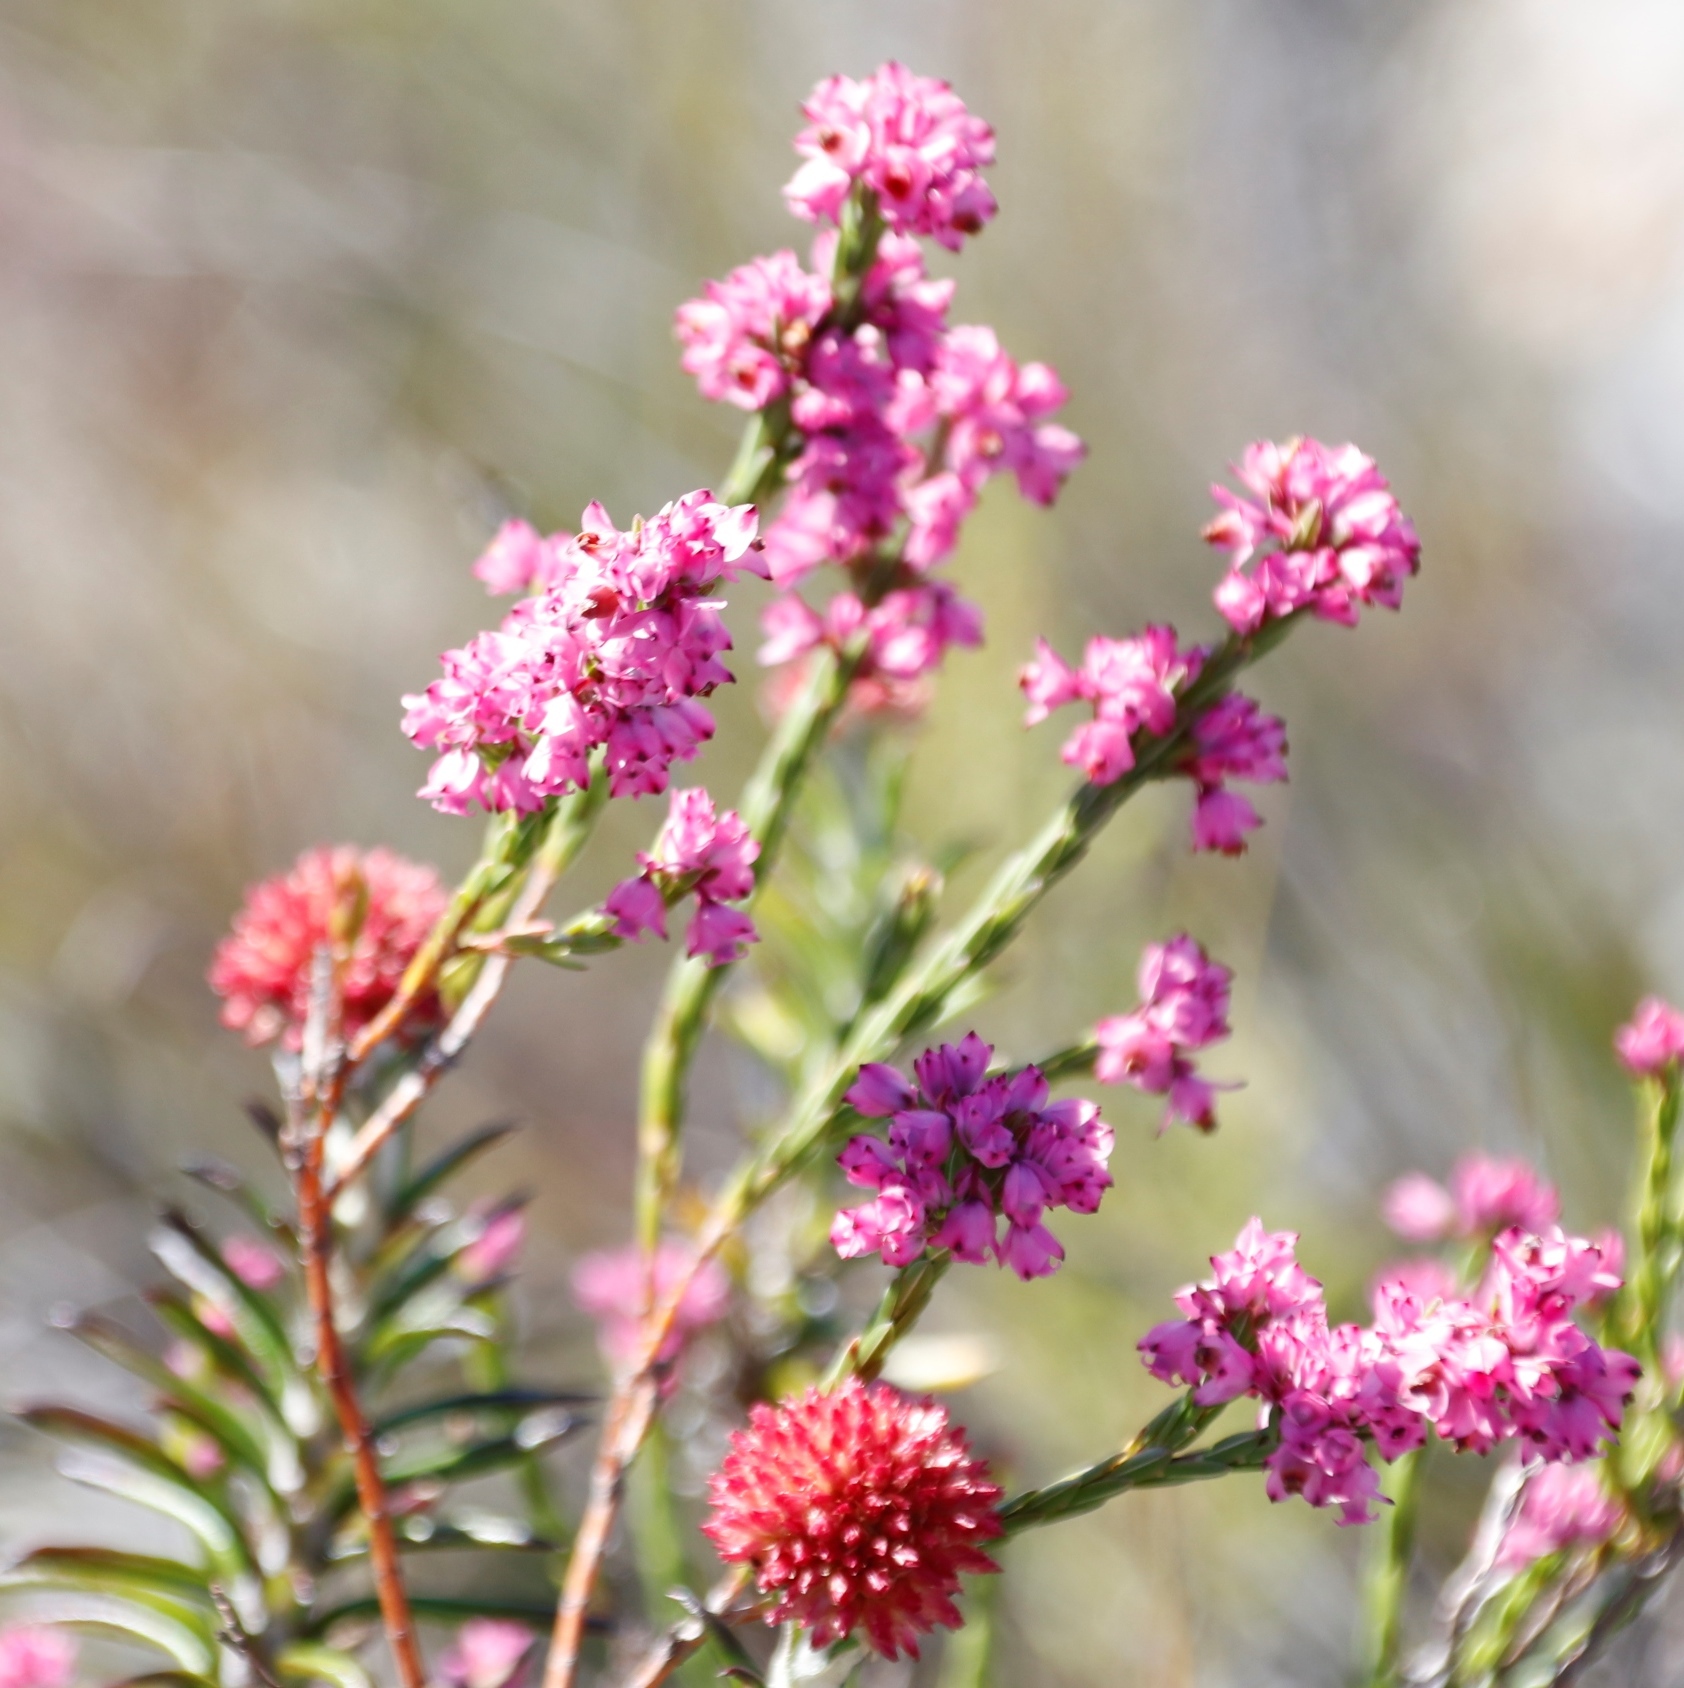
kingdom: Plantae
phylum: Tracheophyta
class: Magnoliopsida
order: Ericales
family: Ericaceae
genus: Erica
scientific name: Erica corifolia
